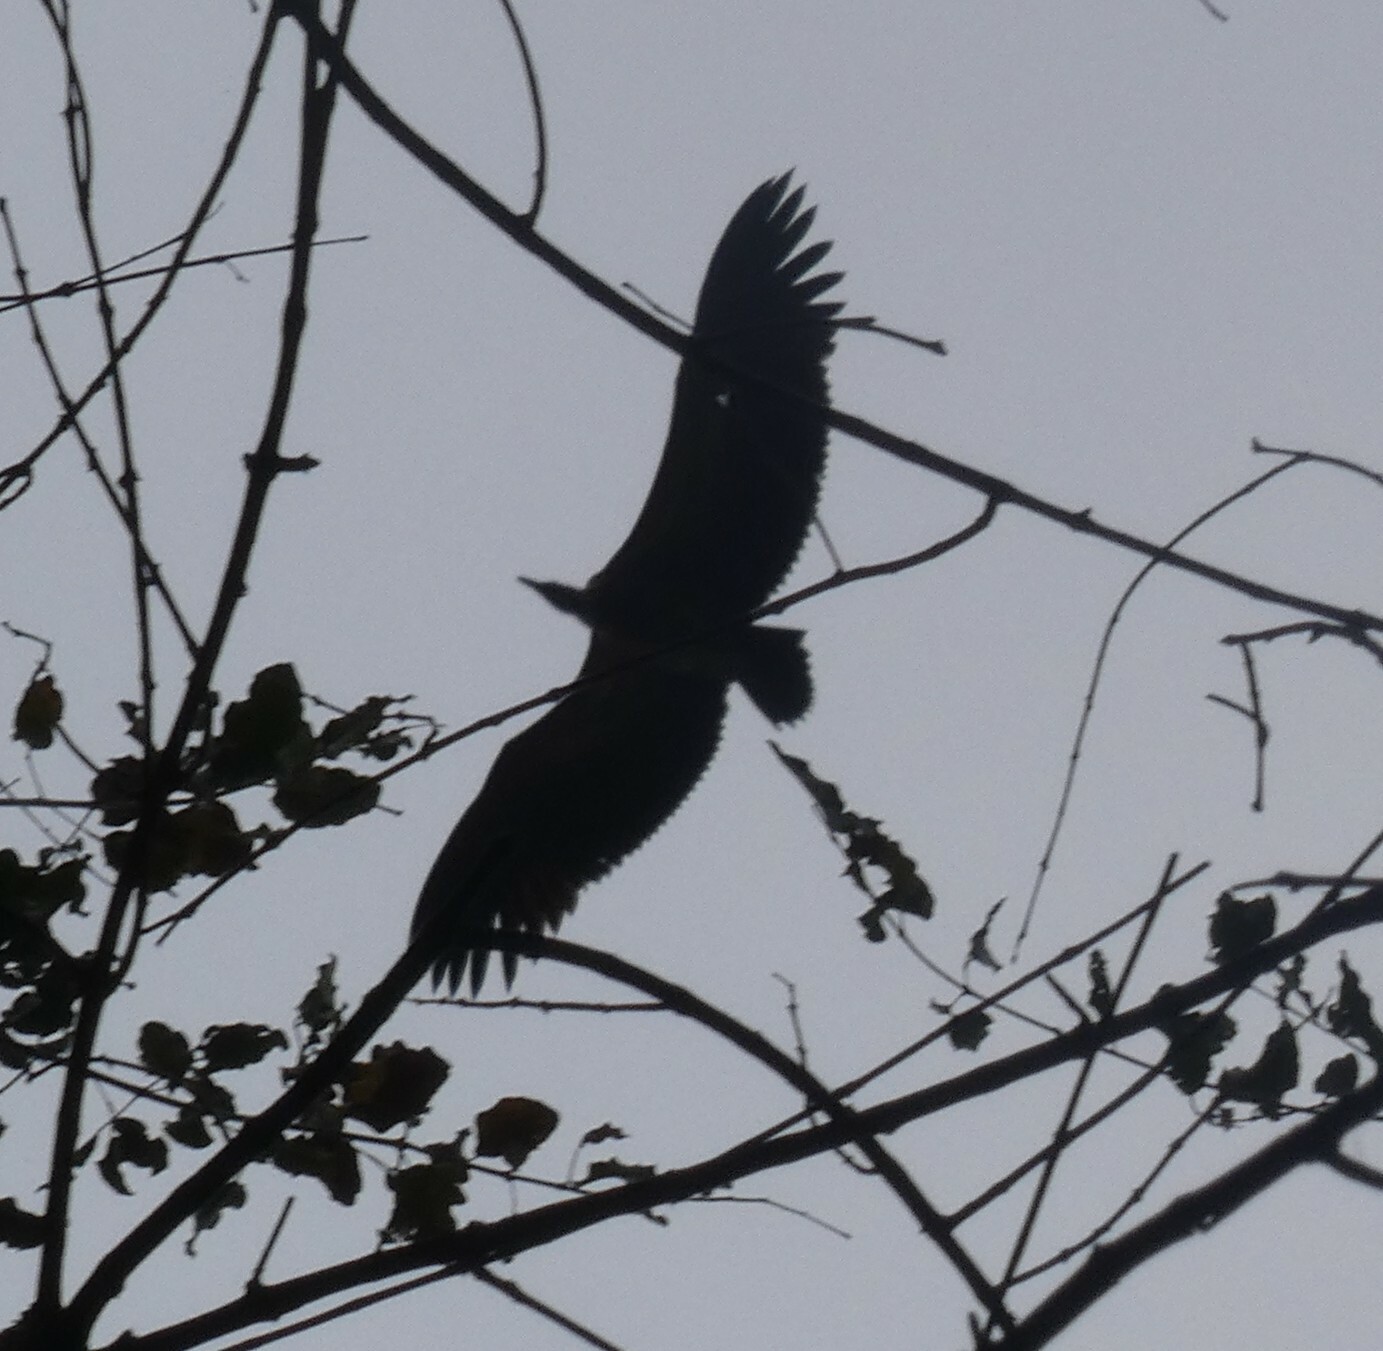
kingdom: Animalia
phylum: Chordata
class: Aves
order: Accipitriformes
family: Accipitridae
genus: Gyps
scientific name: Gyps africanus
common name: White-backed vulture
